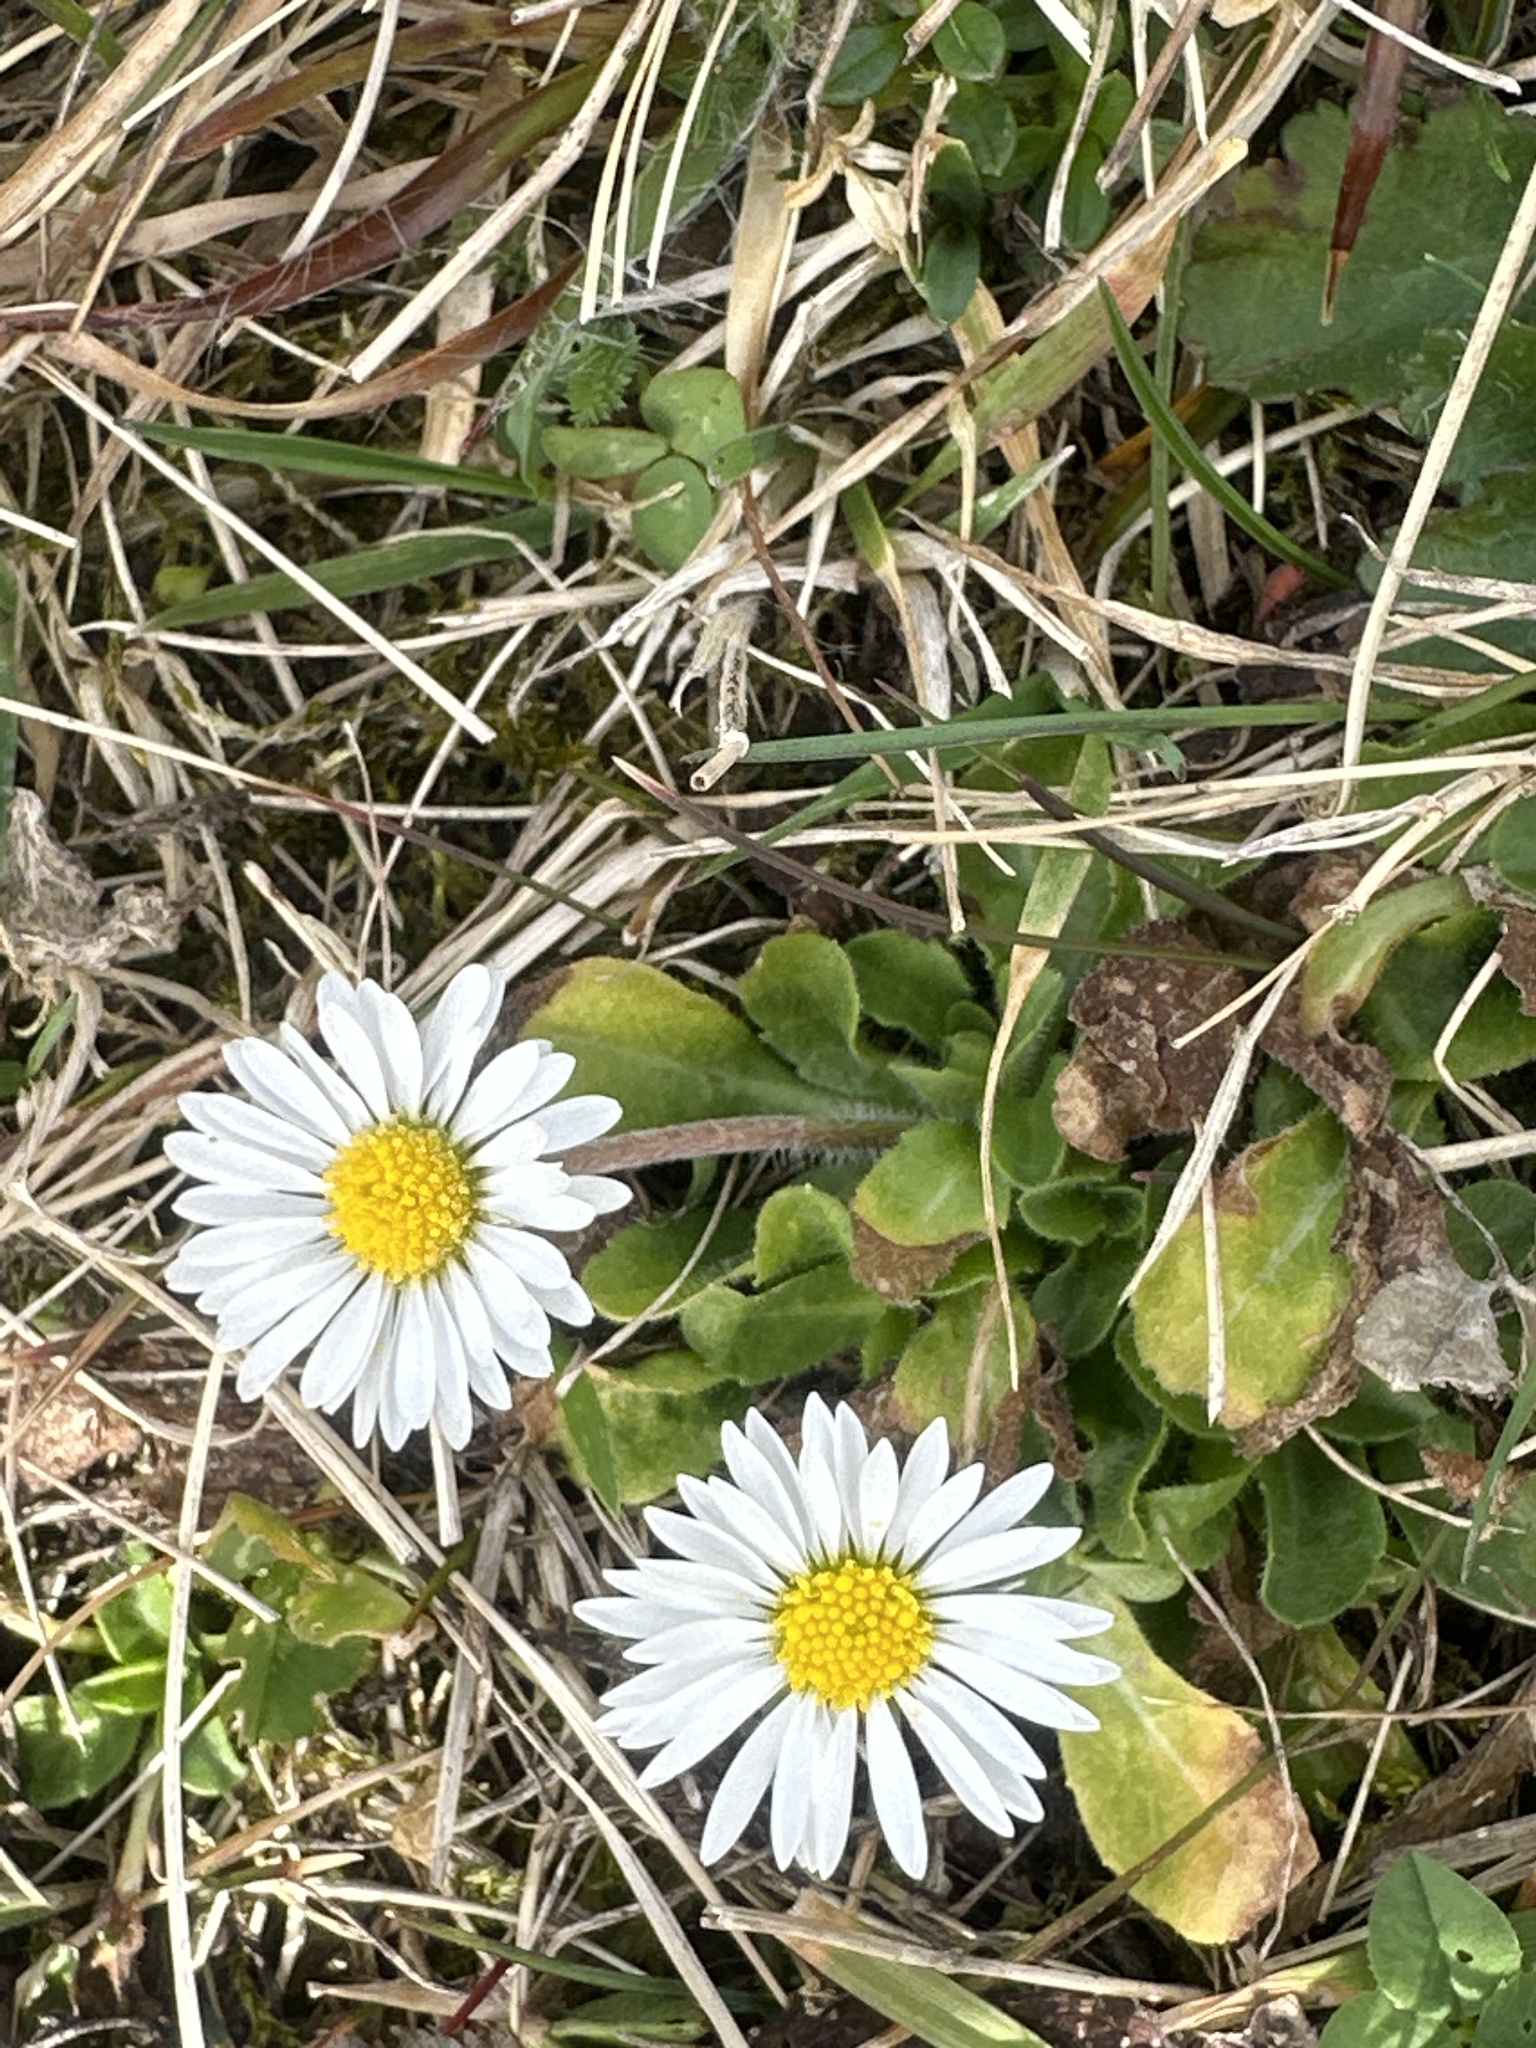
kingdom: Plantae
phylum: Tracheophyta
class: Magnoliopsida
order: Asterales
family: Asteraceae
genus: Bellis
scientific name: Bellis perennis
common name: Lawndaisy
